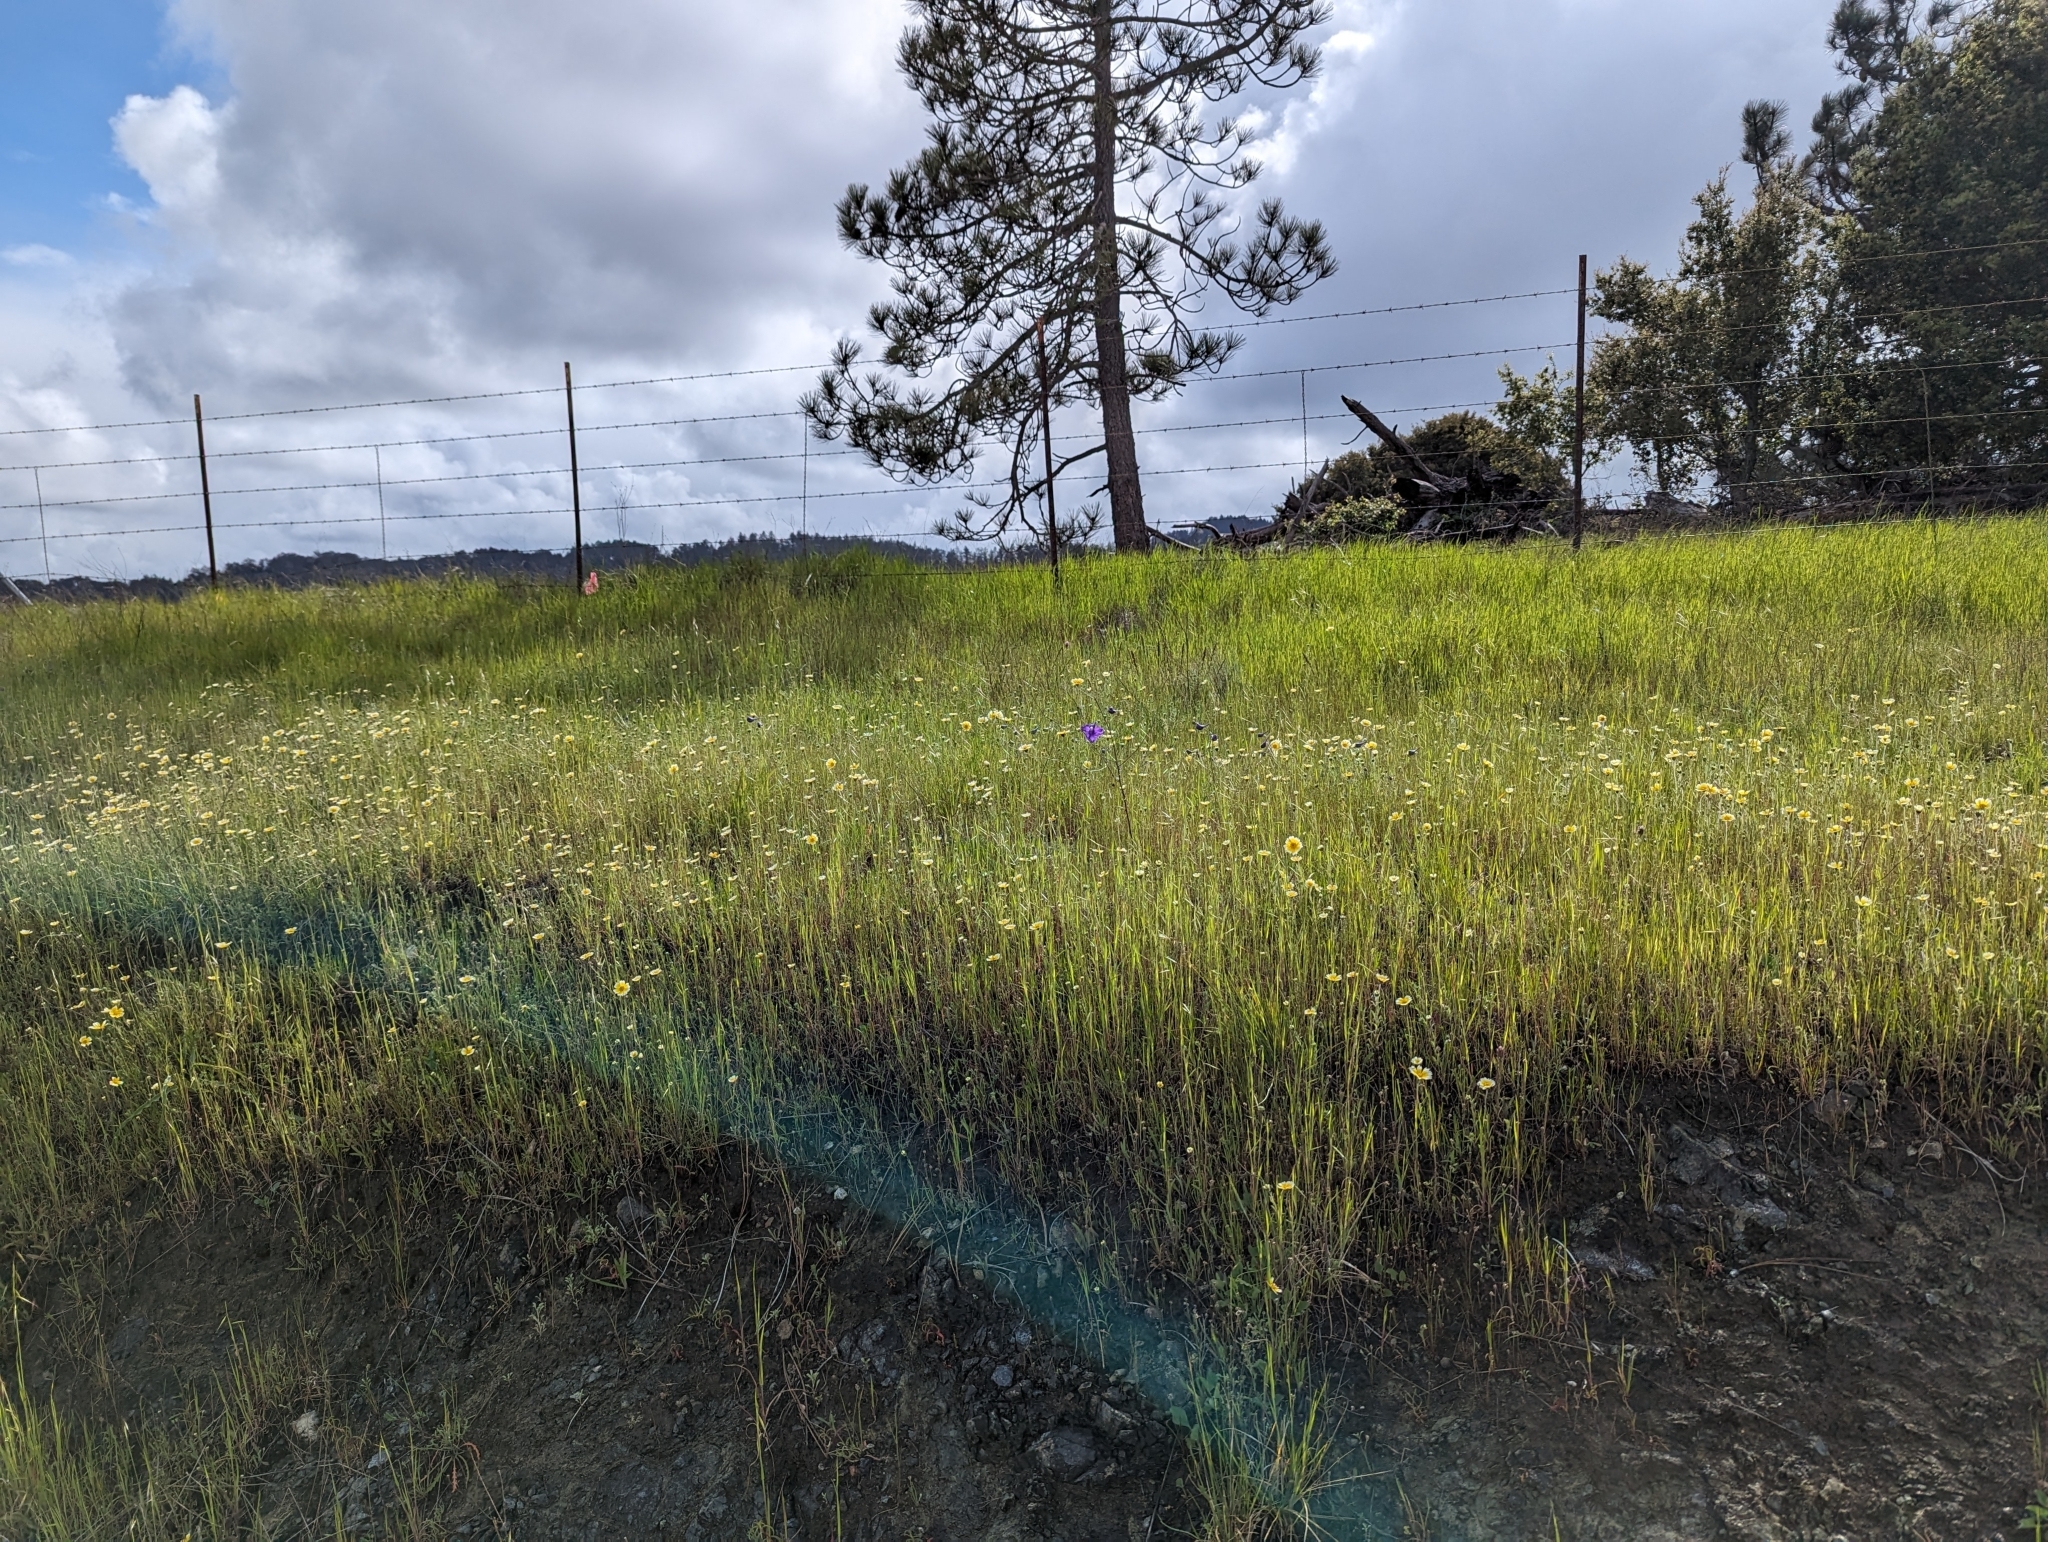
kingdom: Plantae
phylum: Tracheophyta
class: Magnoliopsida
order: Asterales
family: Asteraceae
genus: Layia
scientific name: Layia platyglossa
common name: Tidy-tips
